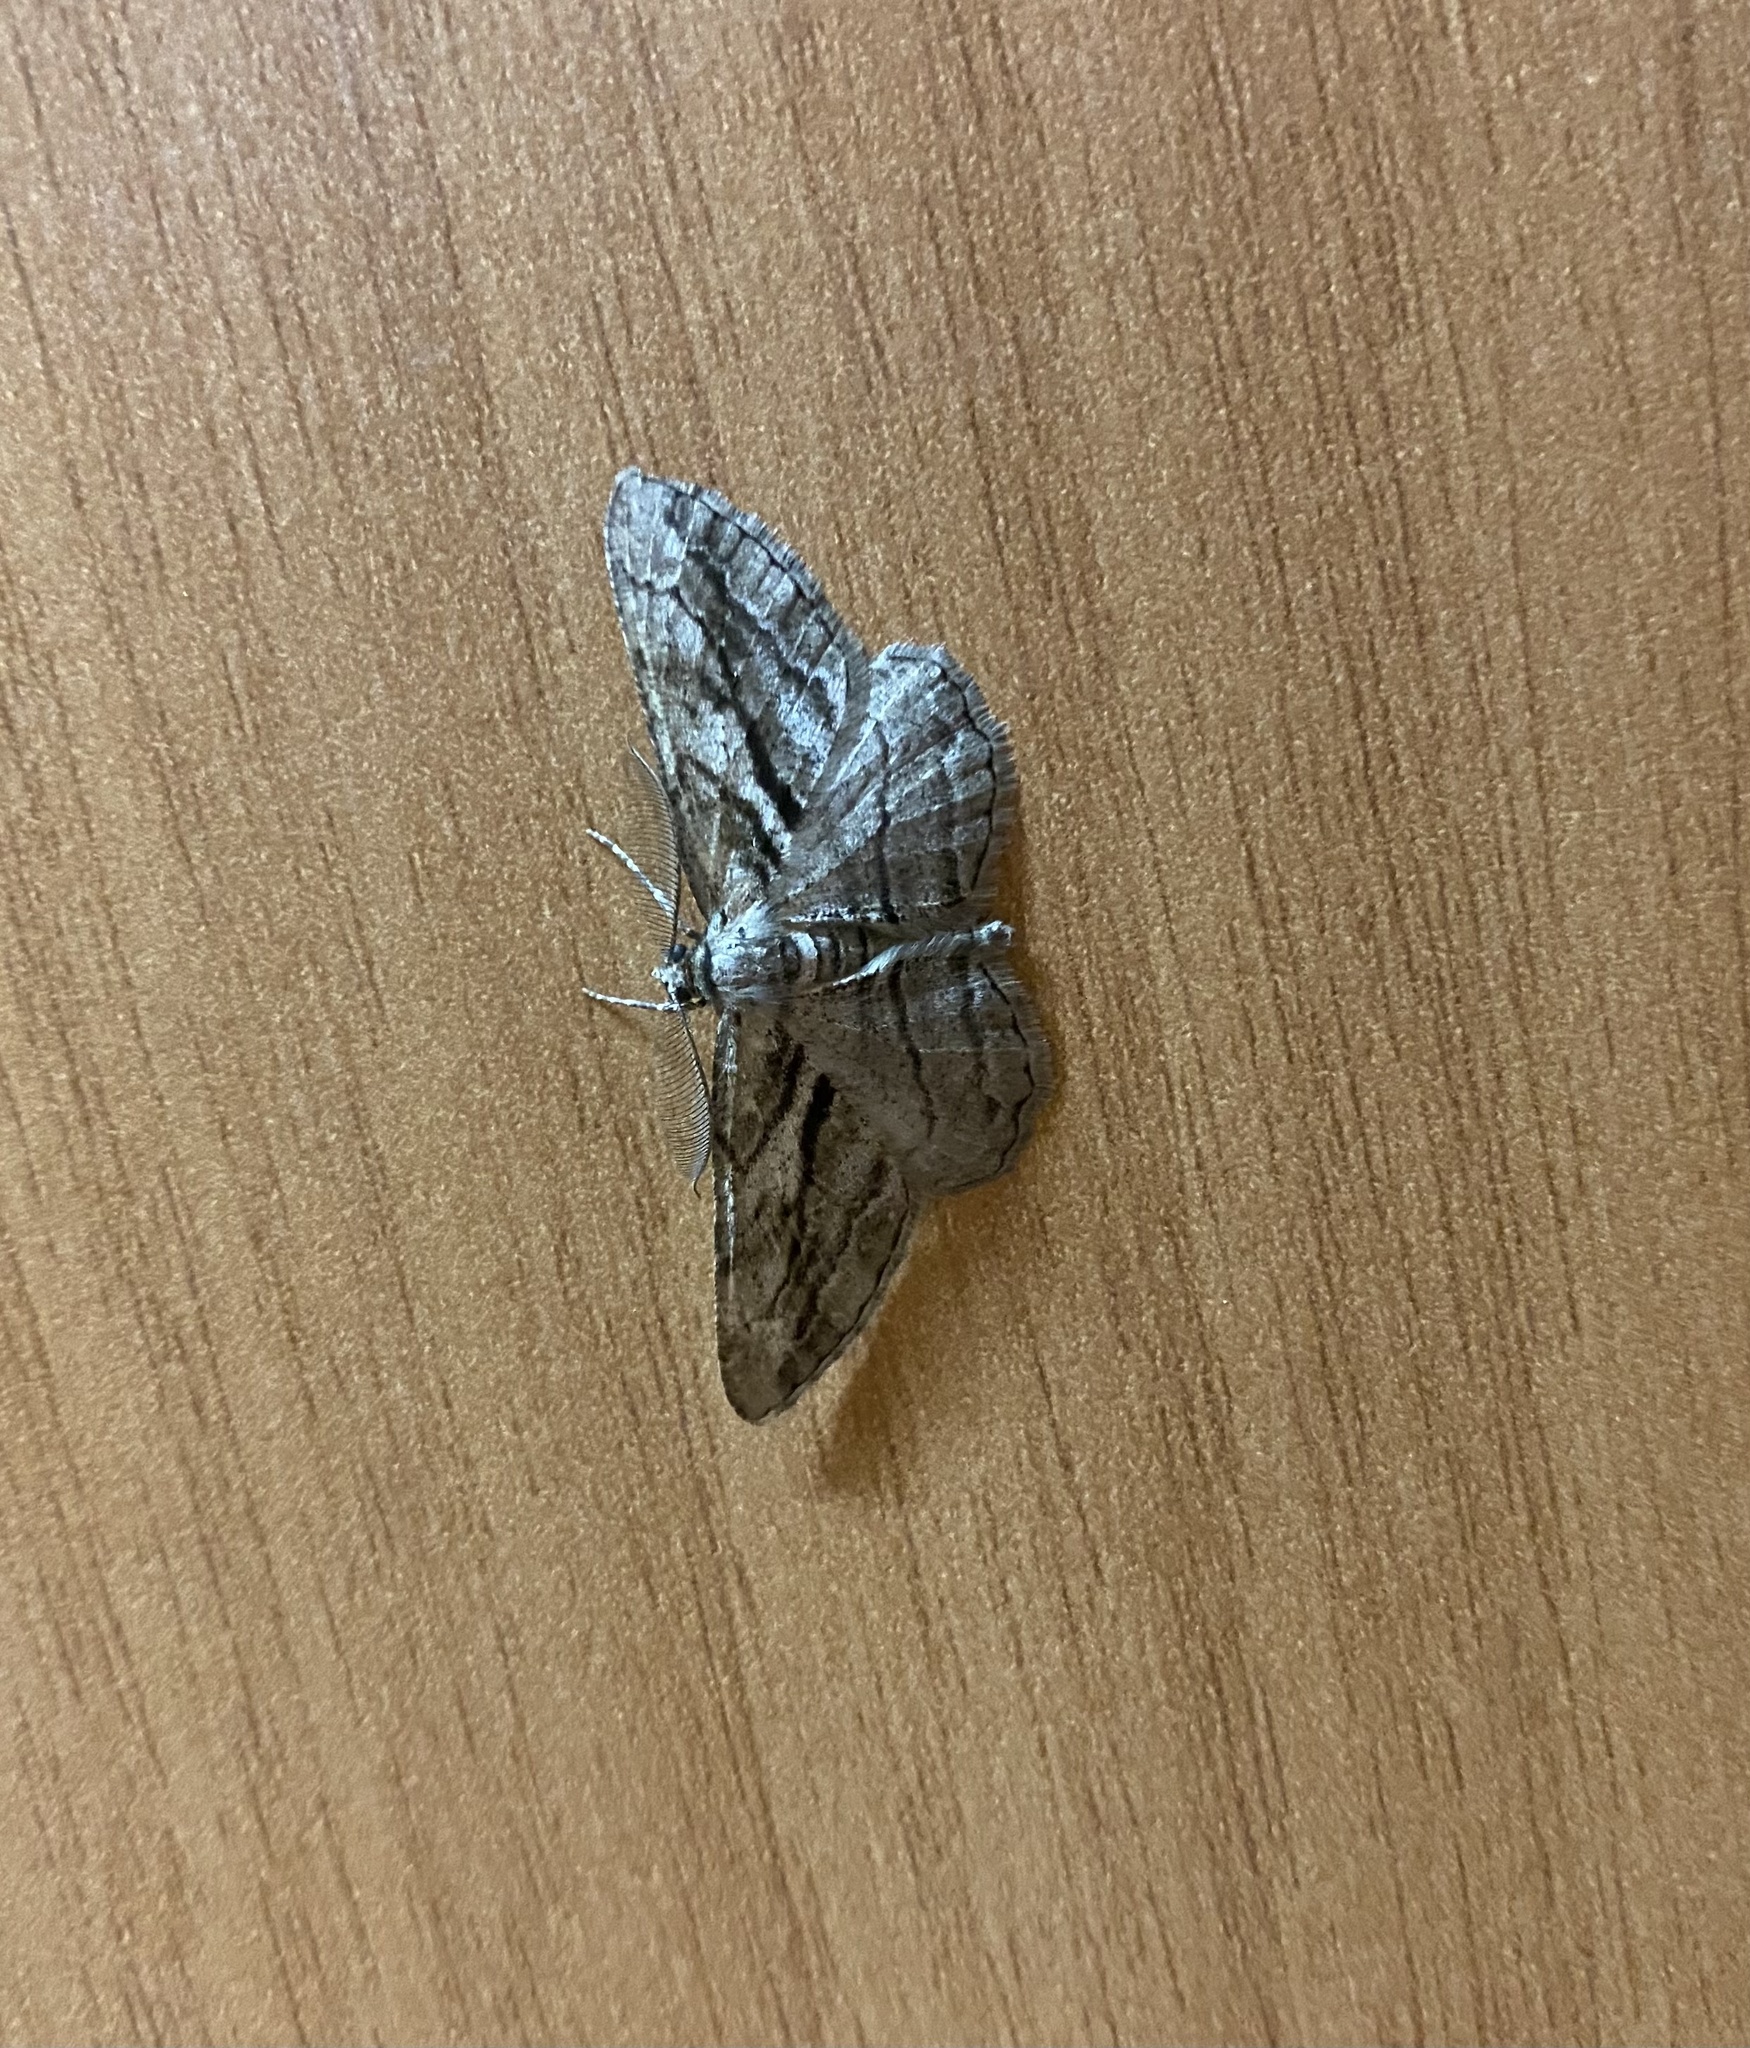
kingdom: Animalia
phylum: Arthropoda
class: Insecta
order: Lepidoptera
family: Geometridae
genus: Peribatodes
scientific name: Peribatodes correptaria
